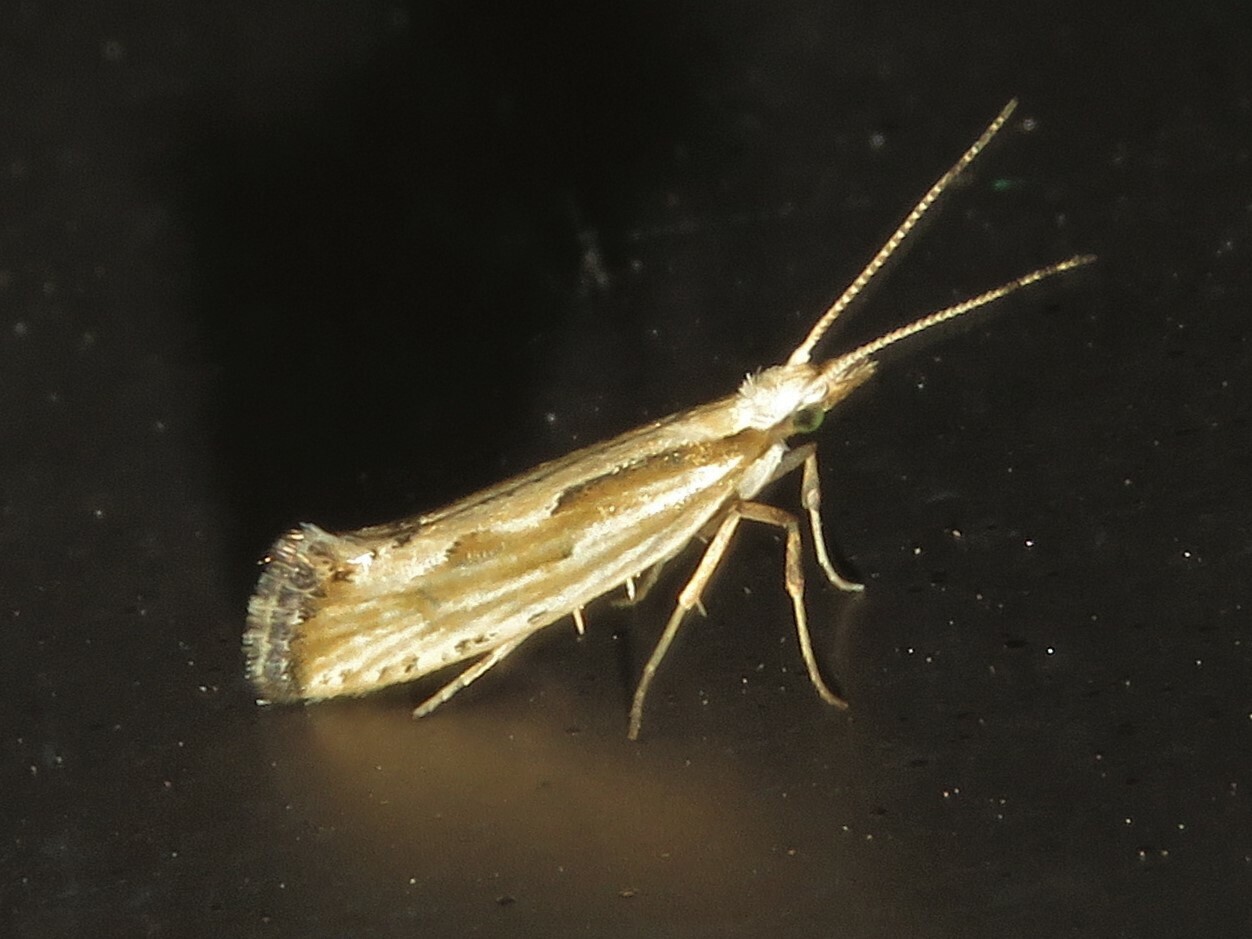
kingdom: Animalia
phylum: Arthropoda
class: Insecta
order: Lepidoptera
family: Plutellidae
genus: Plutella
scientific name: Plutella porrectella
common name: Dame's rocket moth
